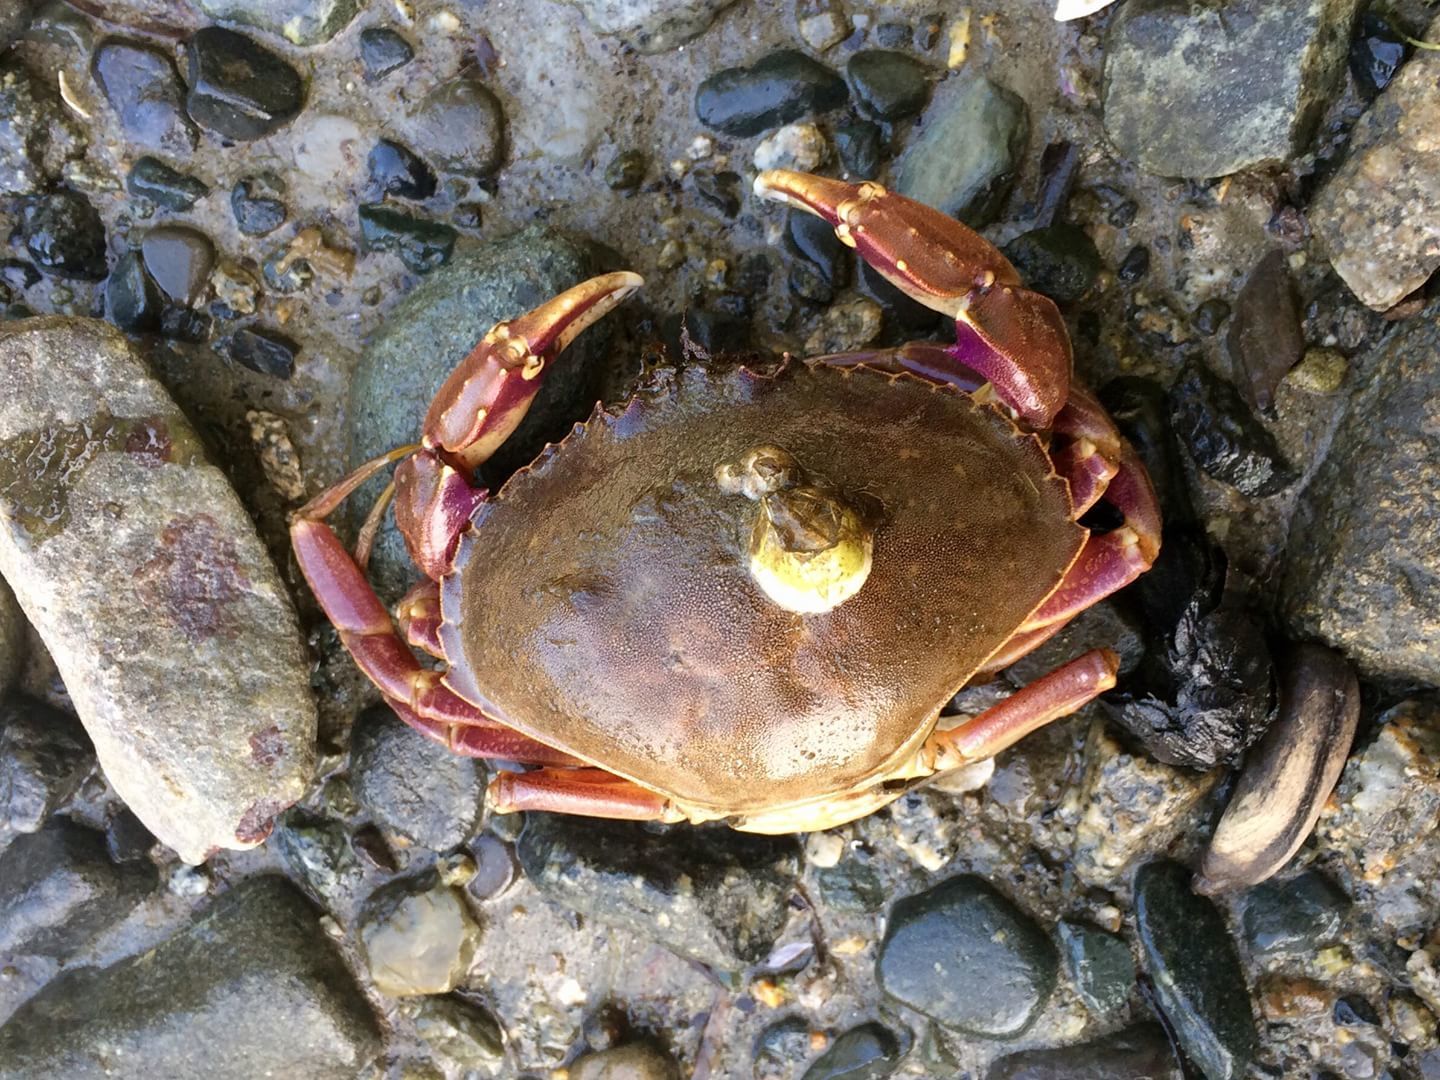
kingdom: Animalia
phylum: Arthropoda
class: Malacostraca
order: Decapoda
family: Cancridae
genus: Metacarcinus
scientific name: Metacarcinus gracilis
